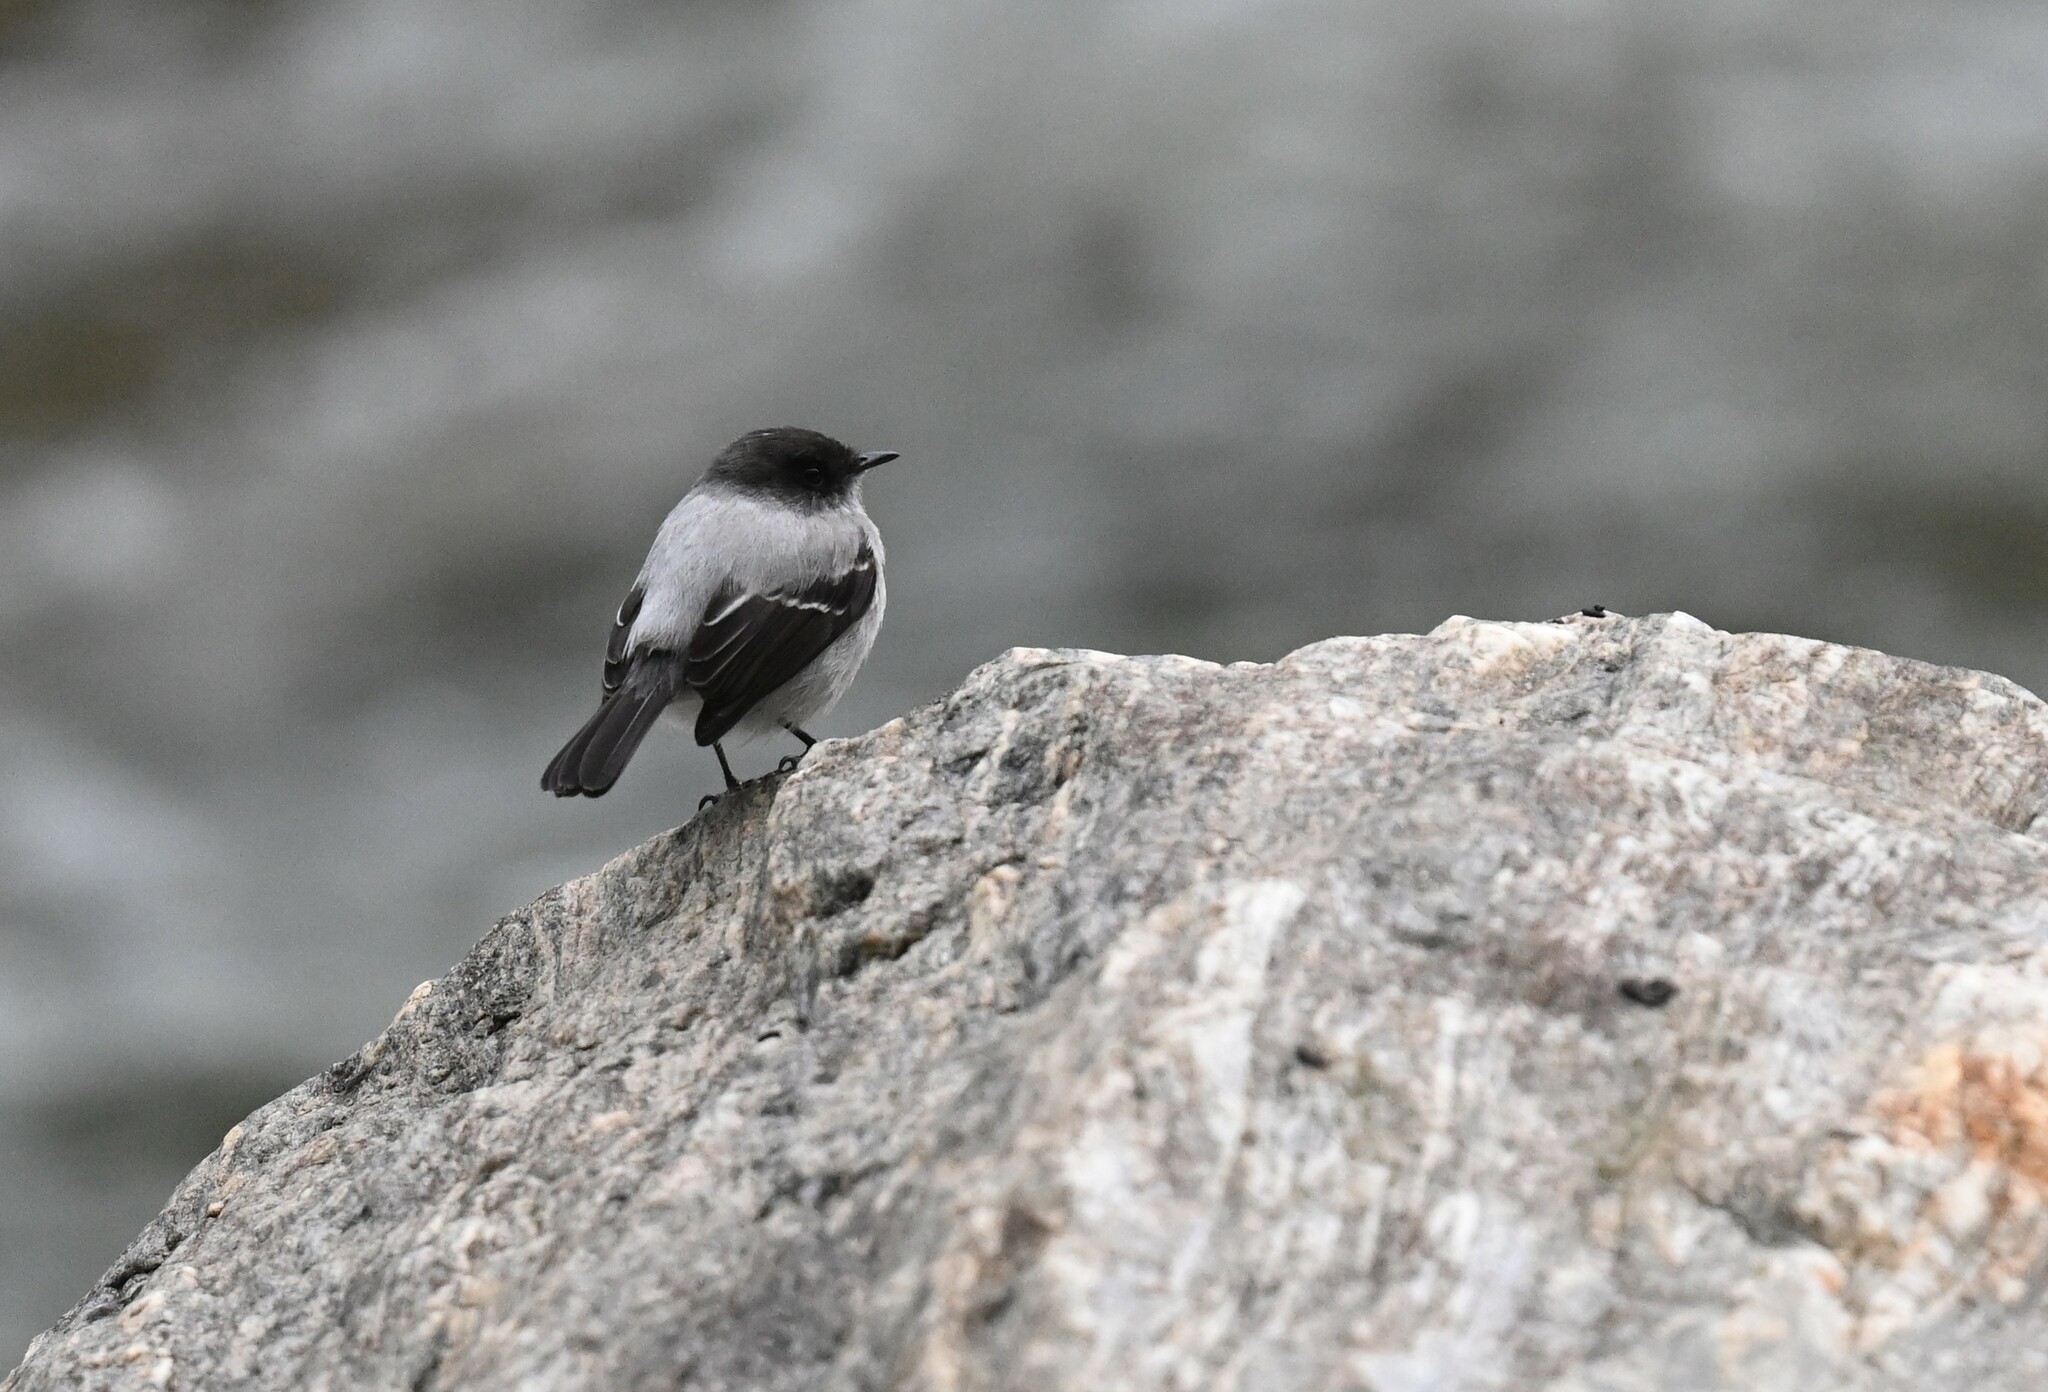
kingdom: Animalia
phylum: Chordata
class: Aves
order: Passeriformes
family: Tyrannidae
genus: Serpophaga
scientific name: Serpophaga cinerea
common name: Torrent tyrannulet
